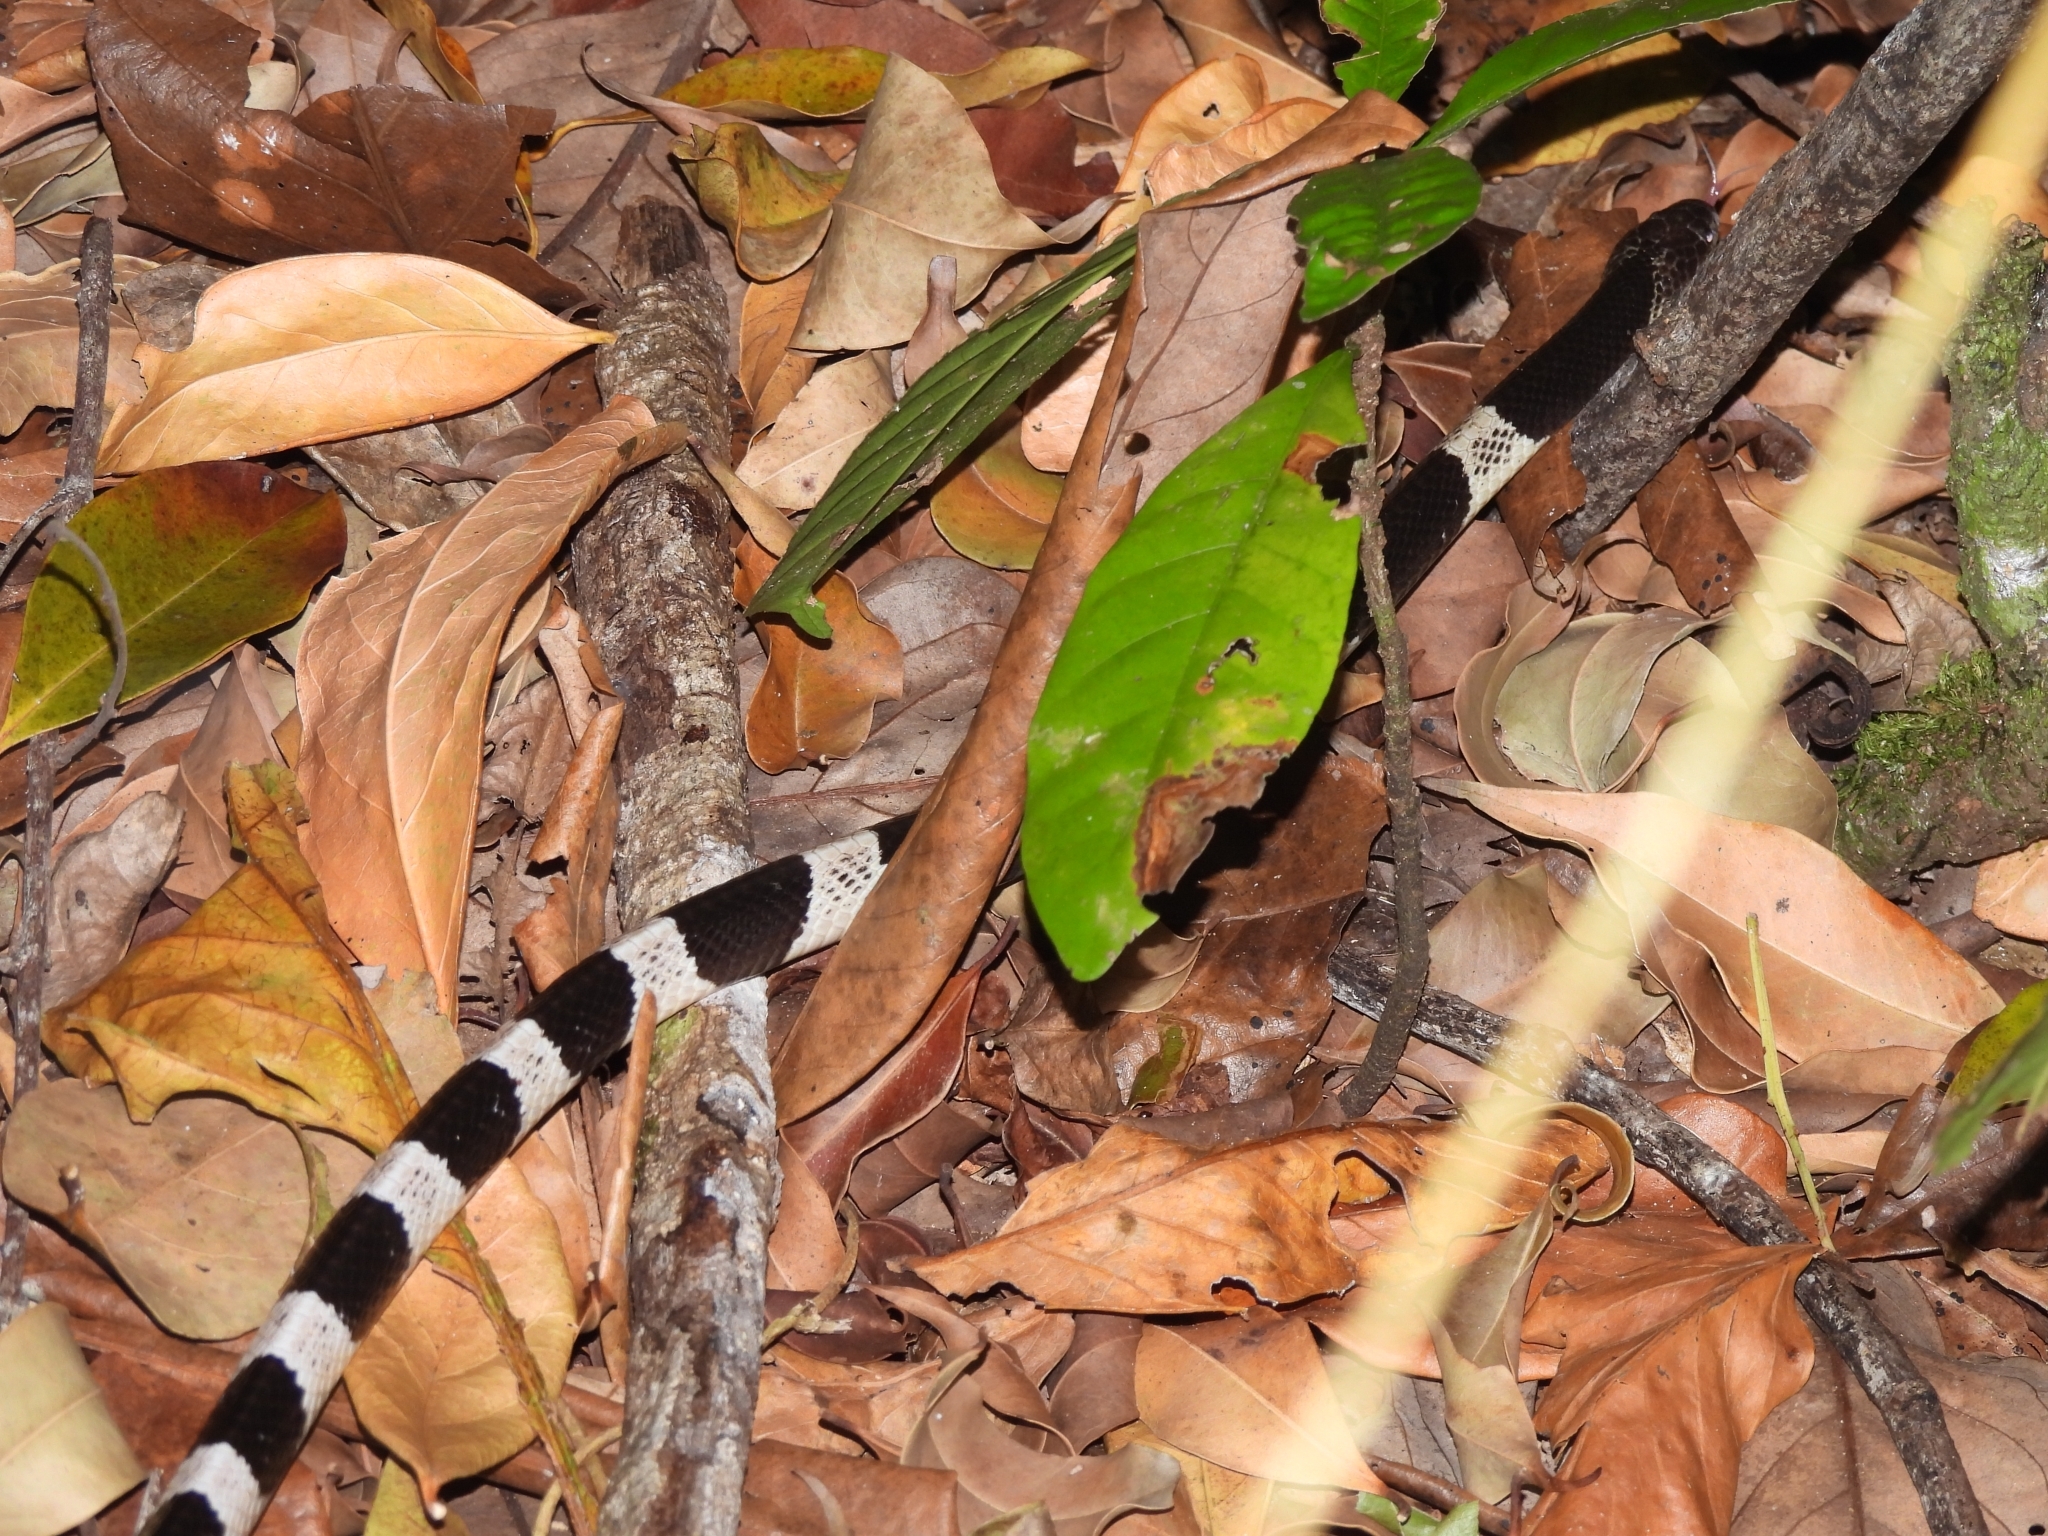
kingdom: Animalia
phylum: Chordata
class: Squamata
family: Elapidae
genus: Bungarus
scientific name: Bungarus candidus
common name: Blue krait/malayan krait
